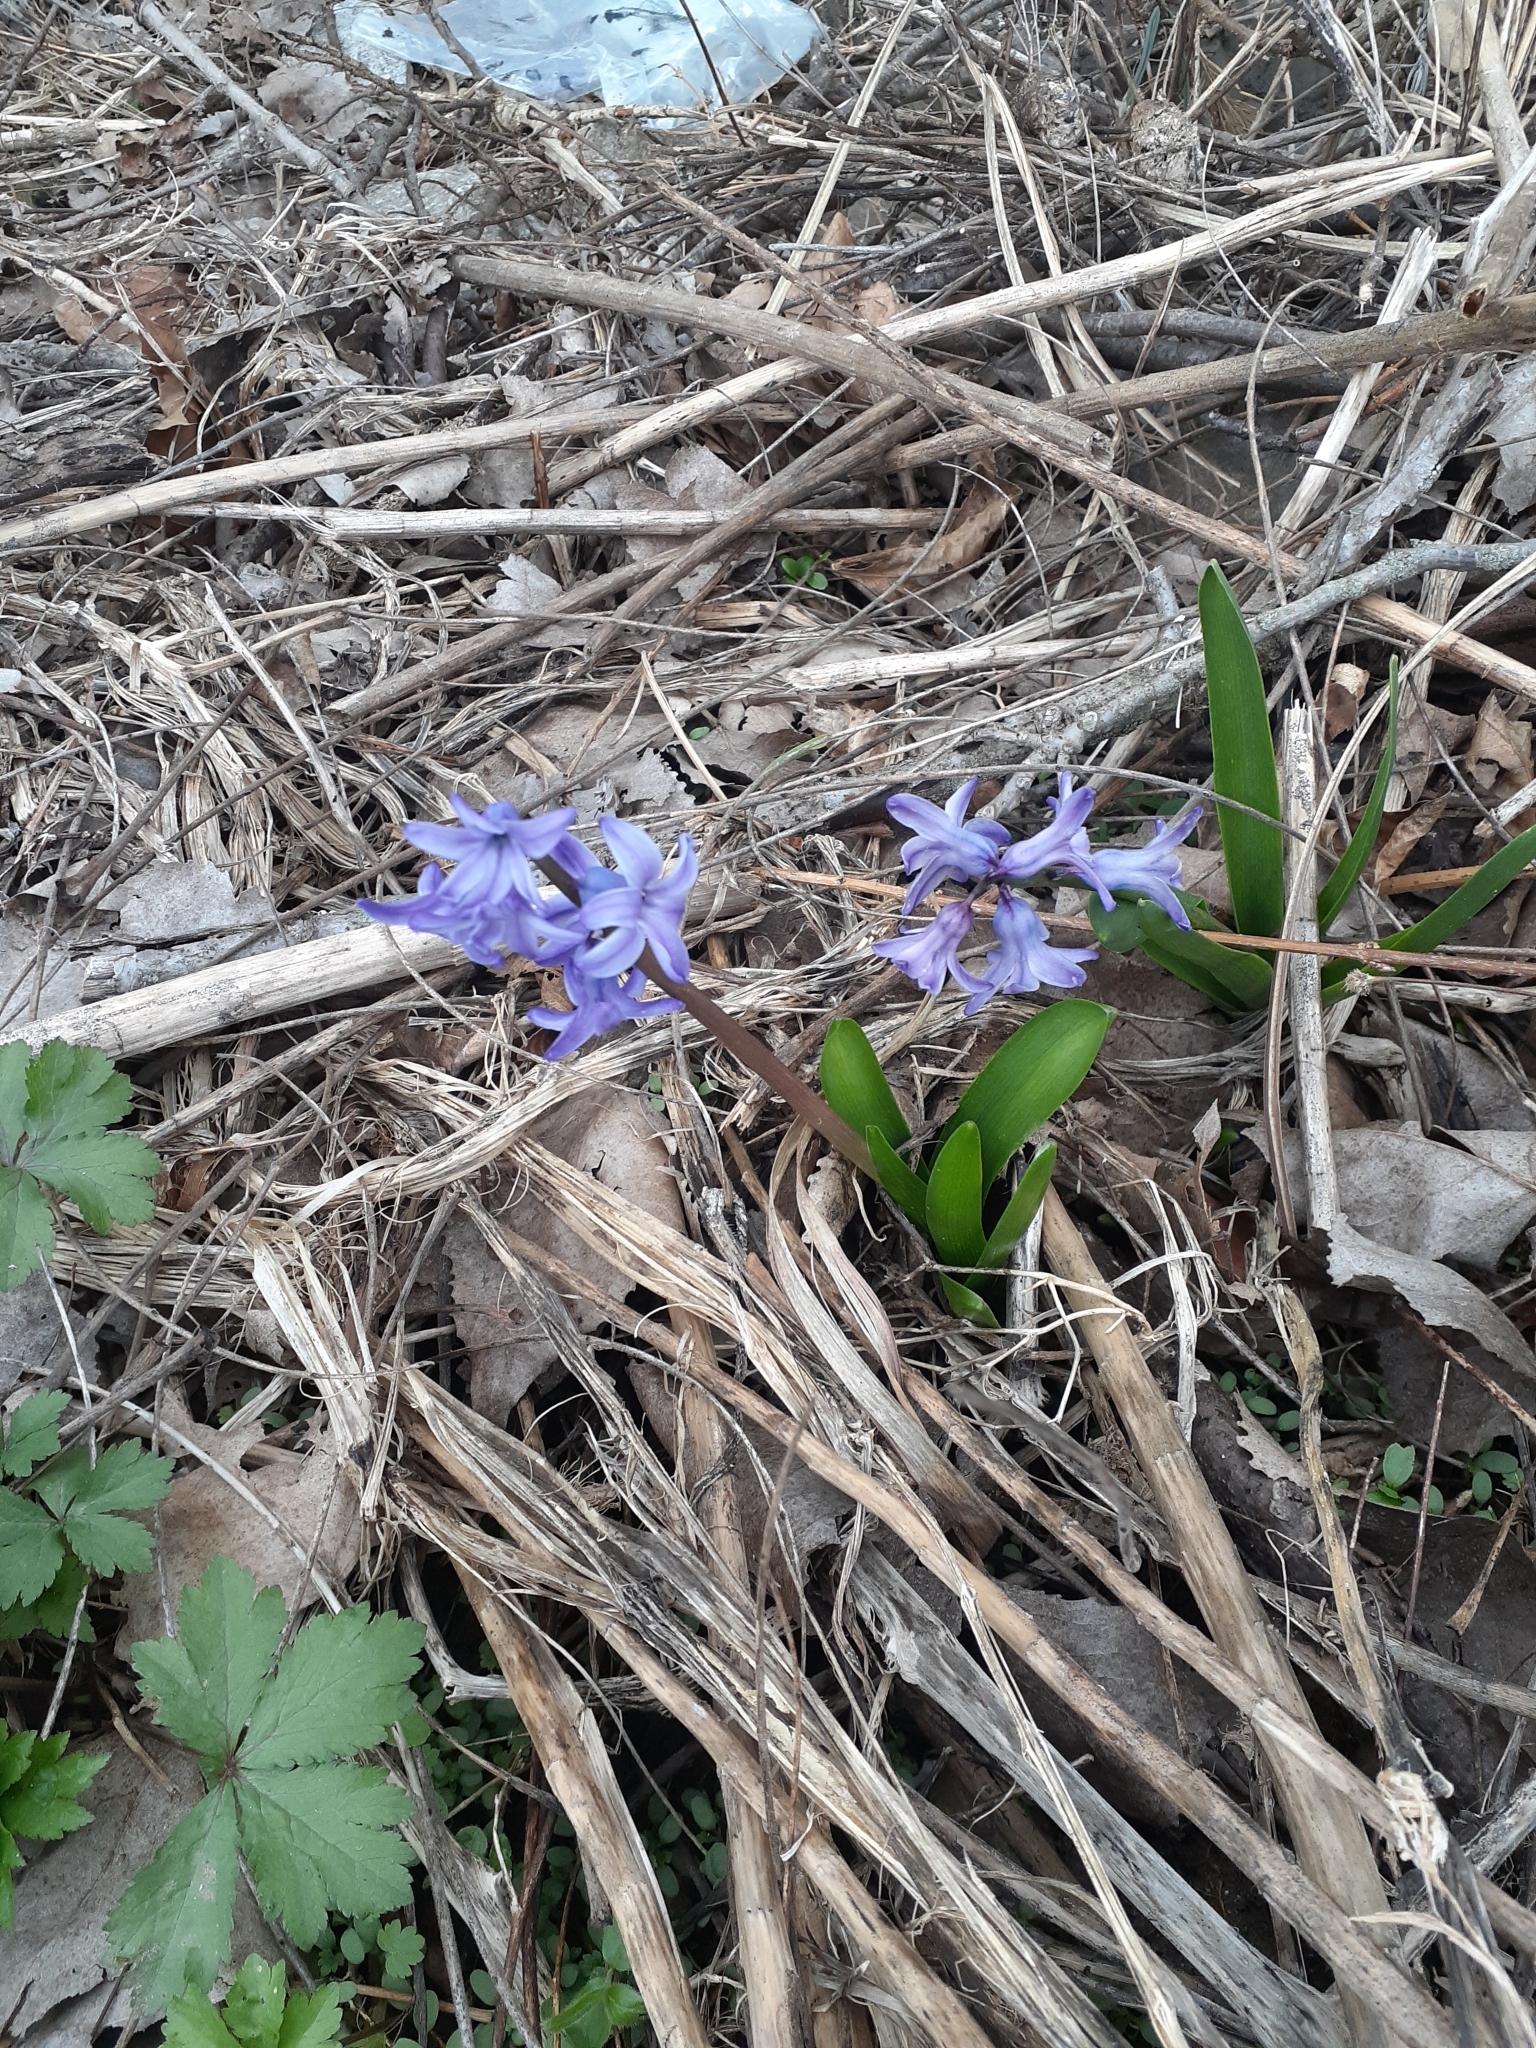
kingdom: Plantae
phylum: Tracheophyta
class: Liliopsida
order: Asparagales
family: Asparagaceae
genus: Hyacinthus
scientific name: Hyacinthus orientalis
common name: Hyacinth
